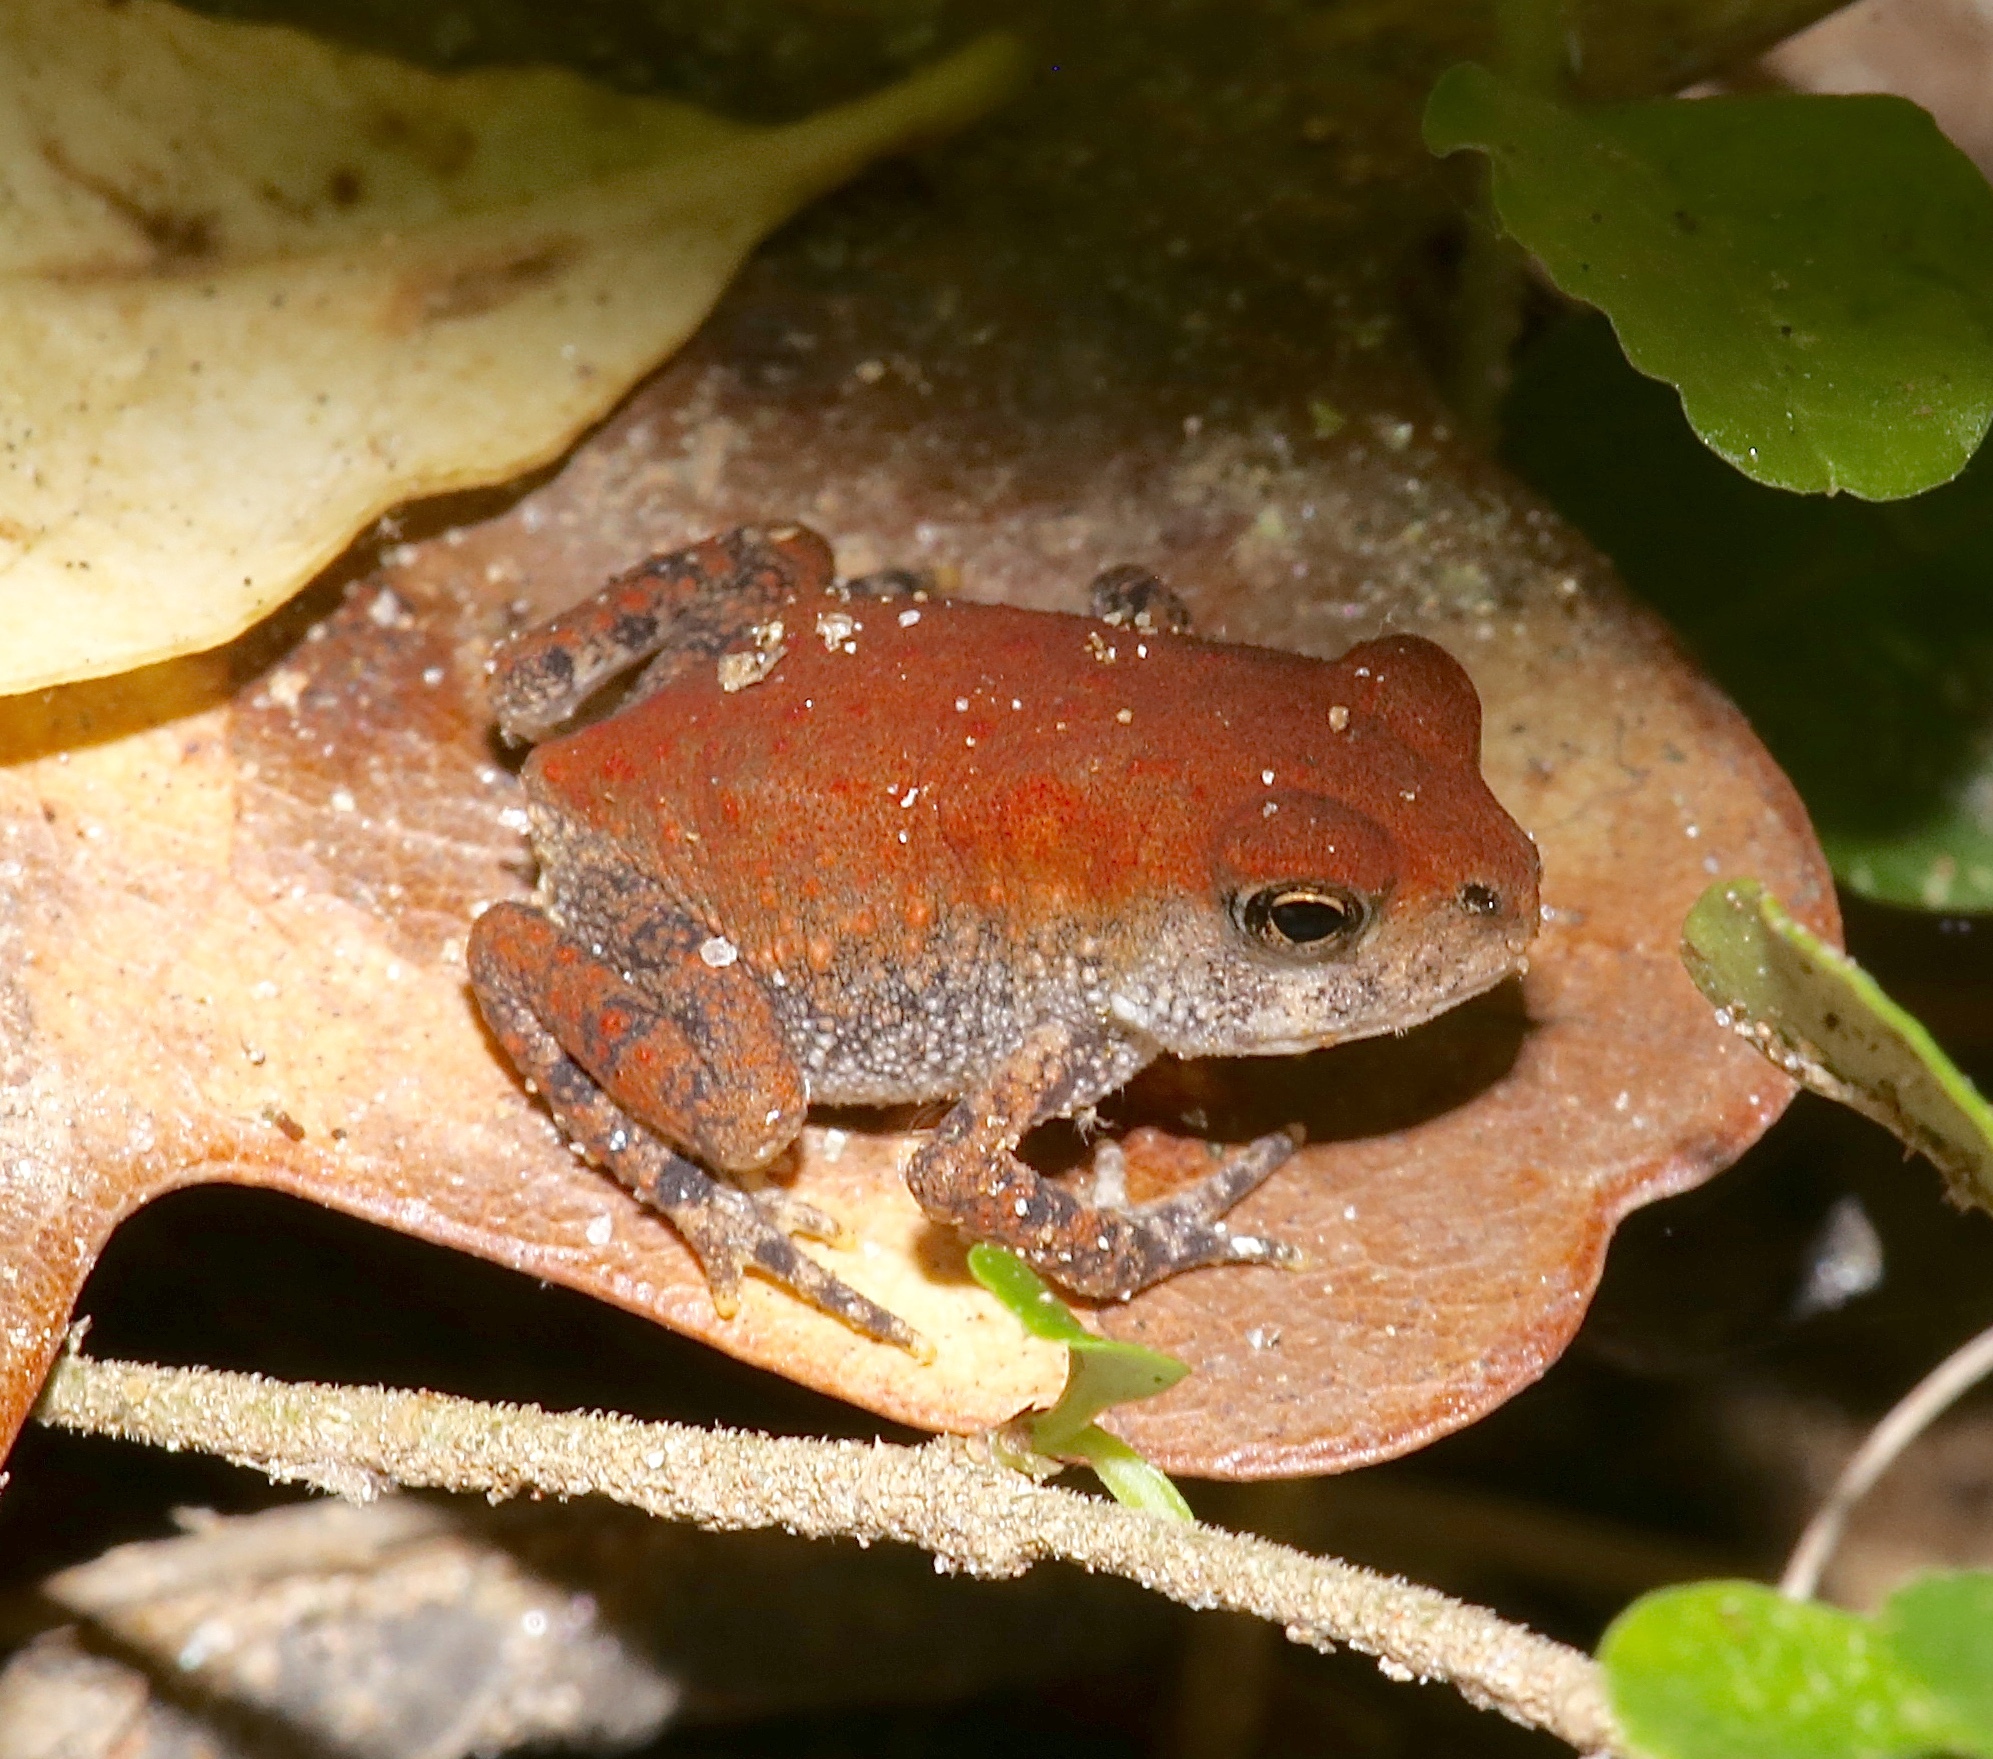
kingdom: Animalia
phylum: Chordata
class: Amphibia
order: Anura
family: Bufonidae
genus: Anaxyrus
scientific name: Anaxyrus americanus
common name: American toad
